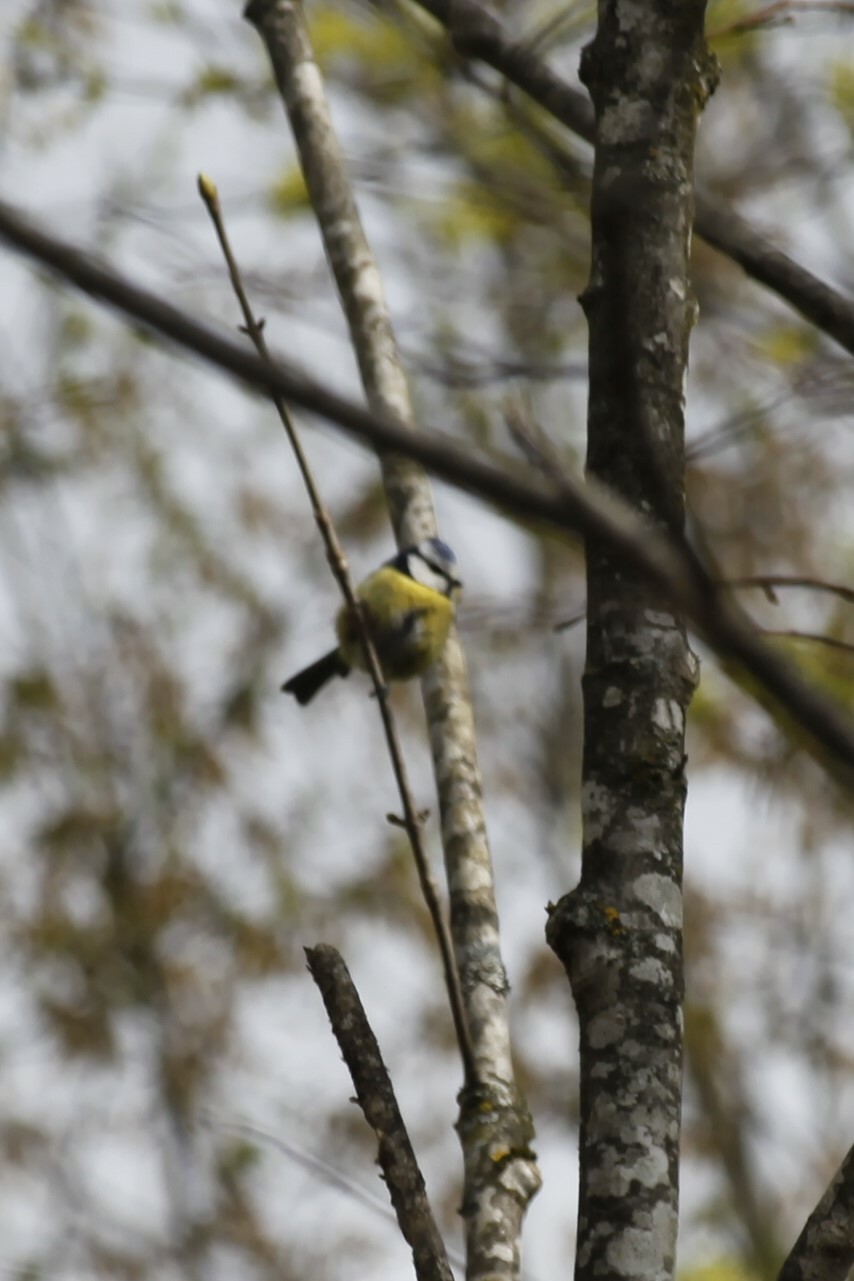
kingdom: Animalia
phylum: Chordata
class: Aves
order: Passeriformes
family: Paridae
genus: Cyanistes
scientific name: Cyanistes caeruleus
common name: Eurasian blue tit
